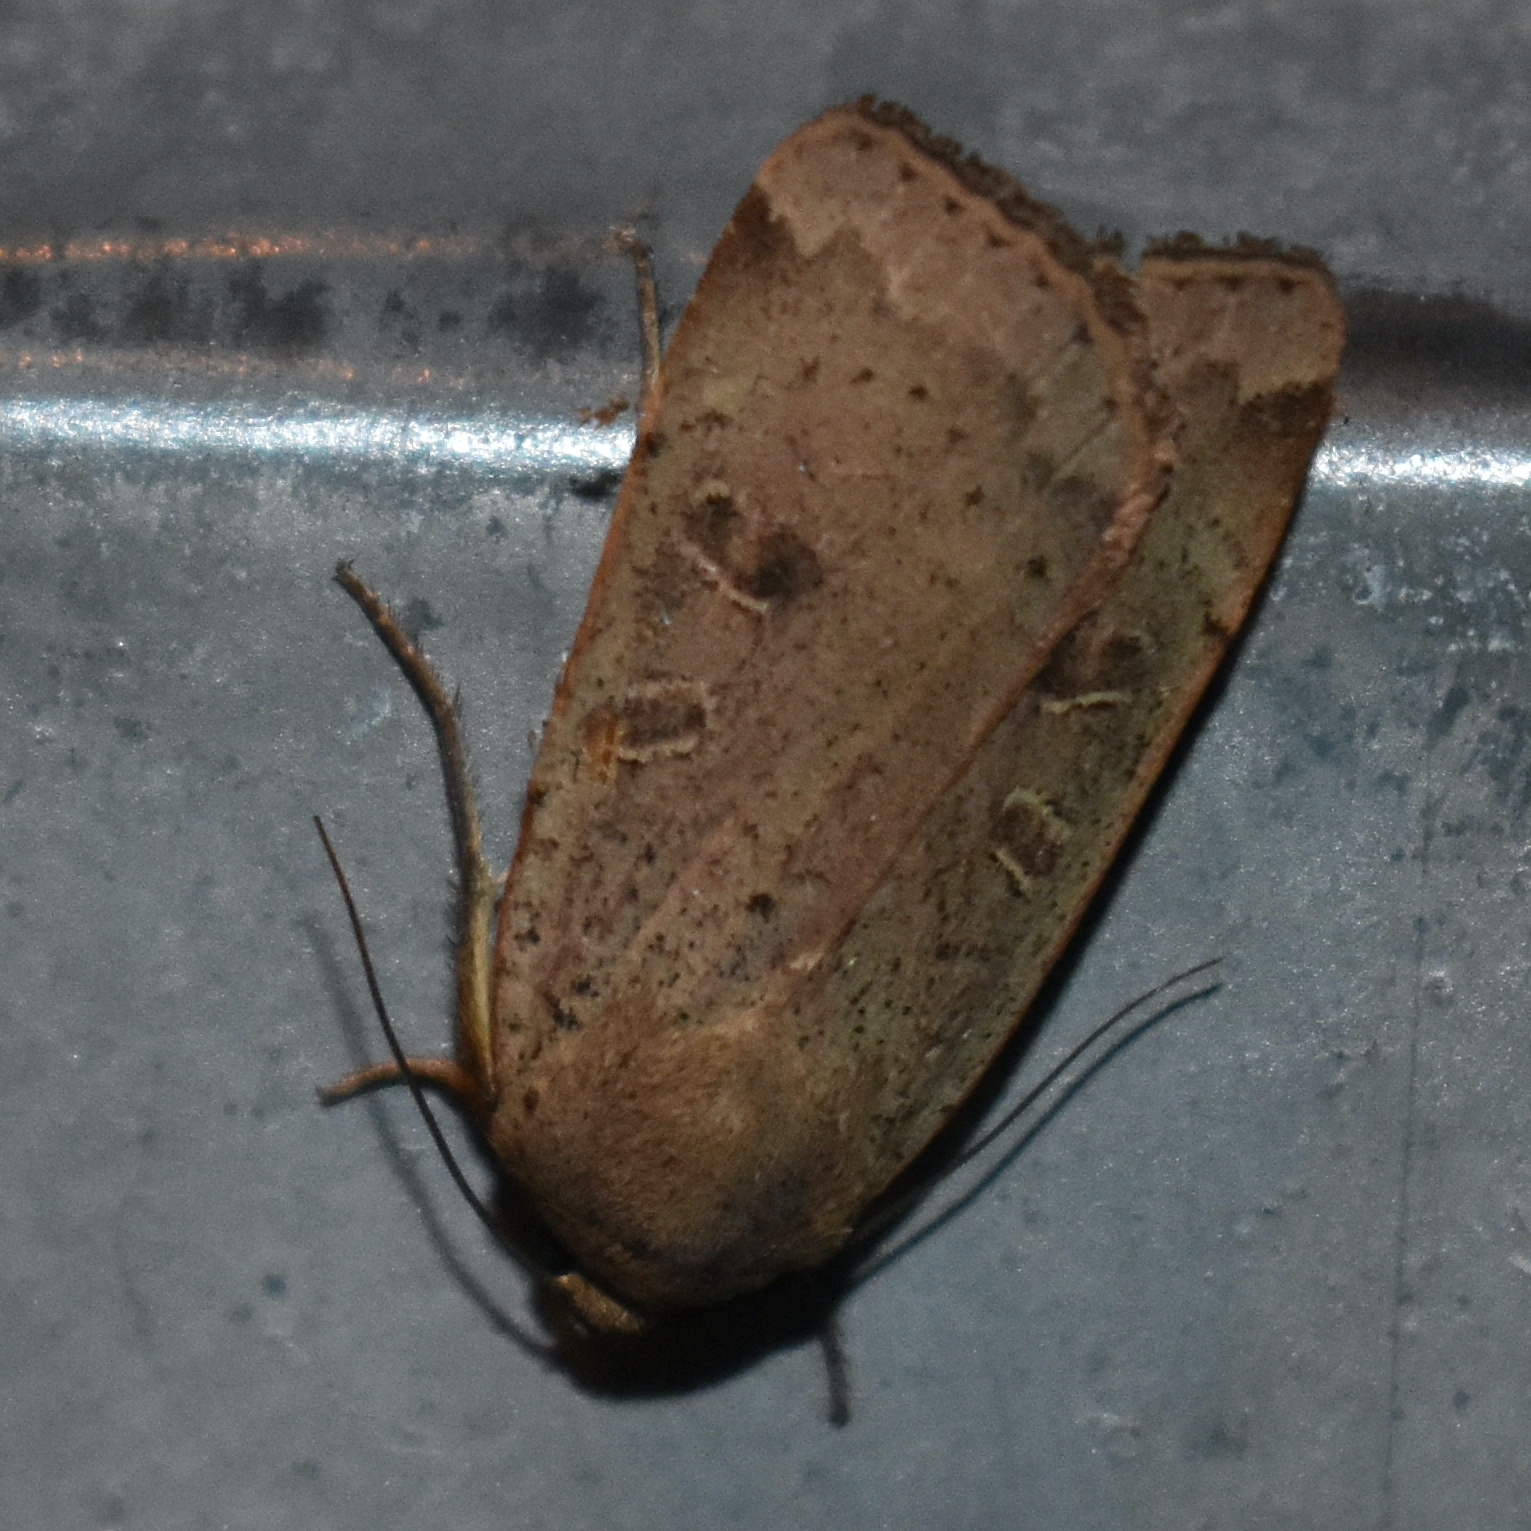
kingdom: Animalia
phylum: Arthropoda
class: Insecta
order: Lepidoptera
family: Noctuidae
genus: Noctua
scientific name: Noctua comes
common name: Lesser yellow underwing
